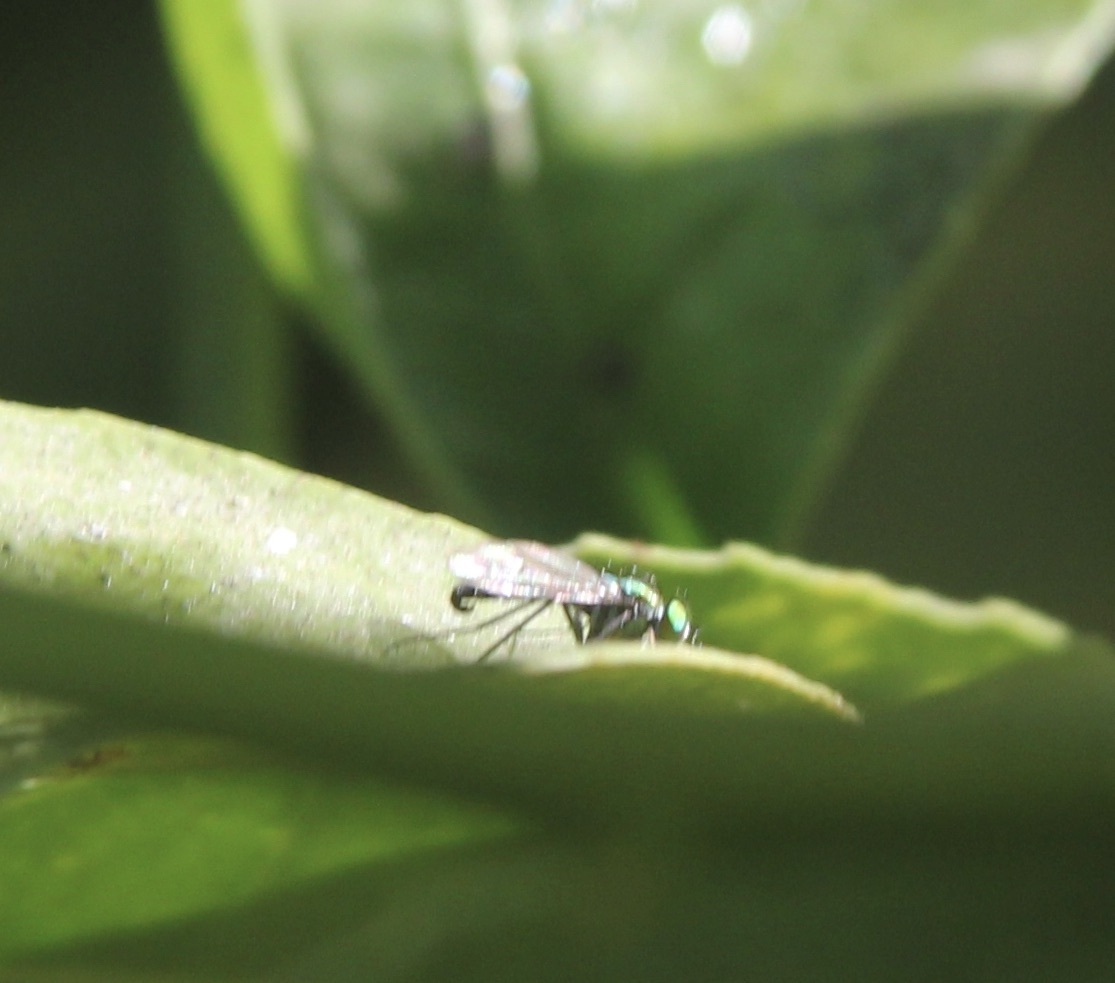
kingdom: Animalia
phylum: Arthropoda
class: Insecta
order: Diptera
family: Dolichopodidae
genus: Condylostylus
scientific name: Condylostylus longicornis
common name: Long-legged fly
